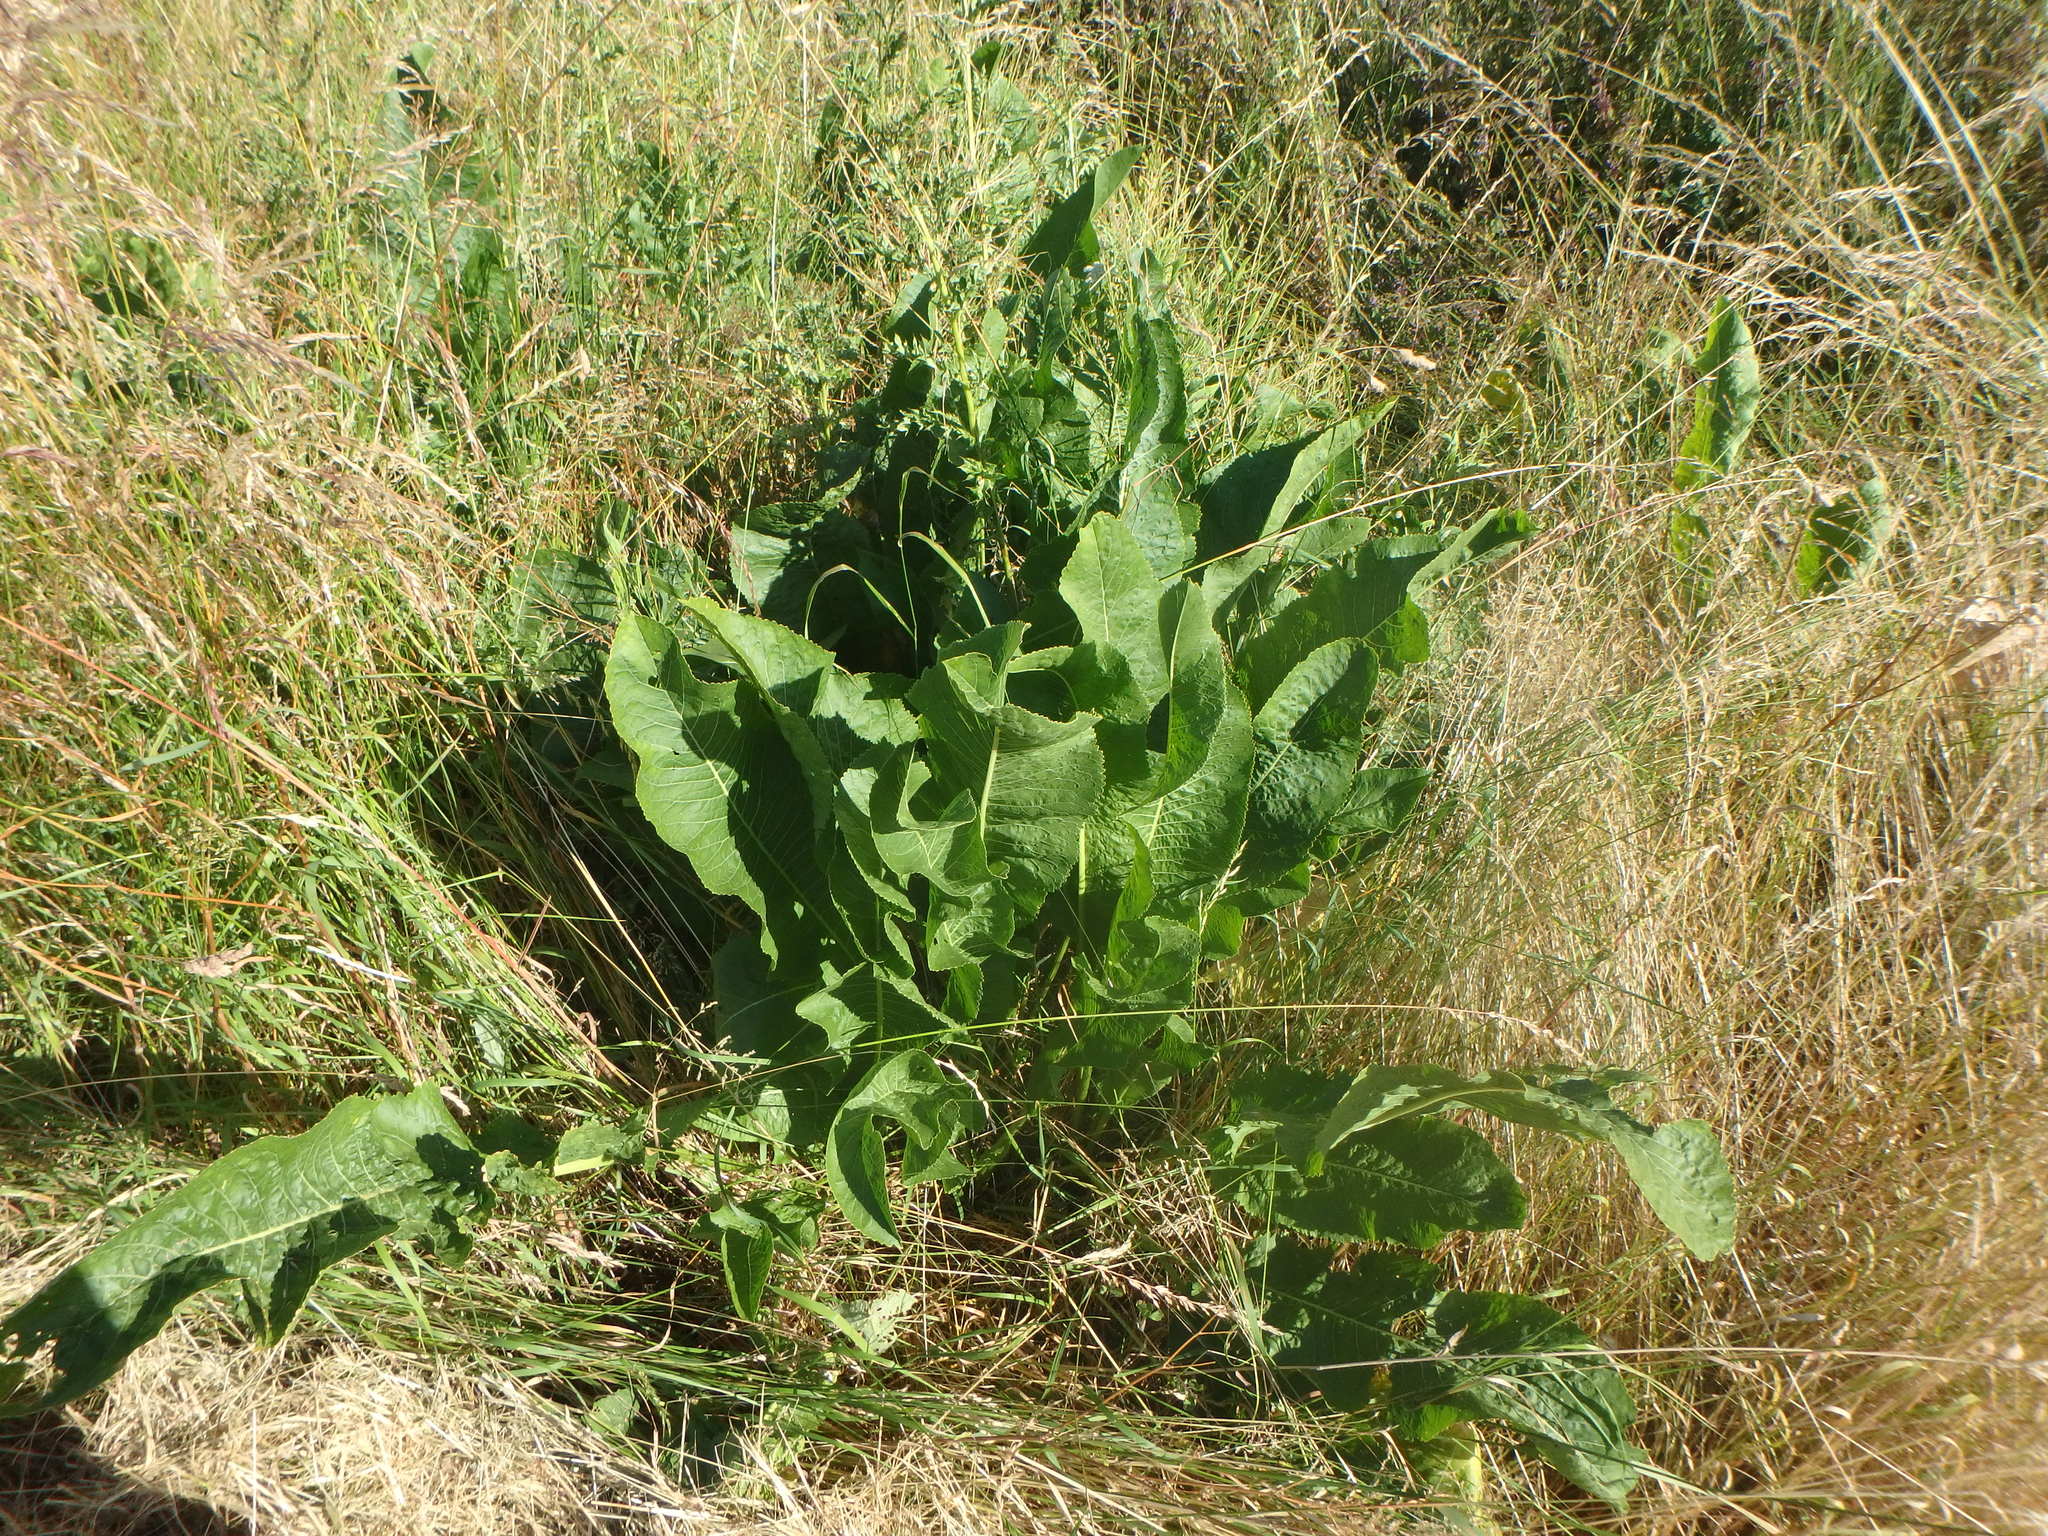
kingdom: Plantae
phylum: Tracheophyta
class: Magnoliopsida
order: Brassicales
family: Brassicaceae
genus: Armoracia
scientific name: Armoracia rusticana
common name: Horseradish
